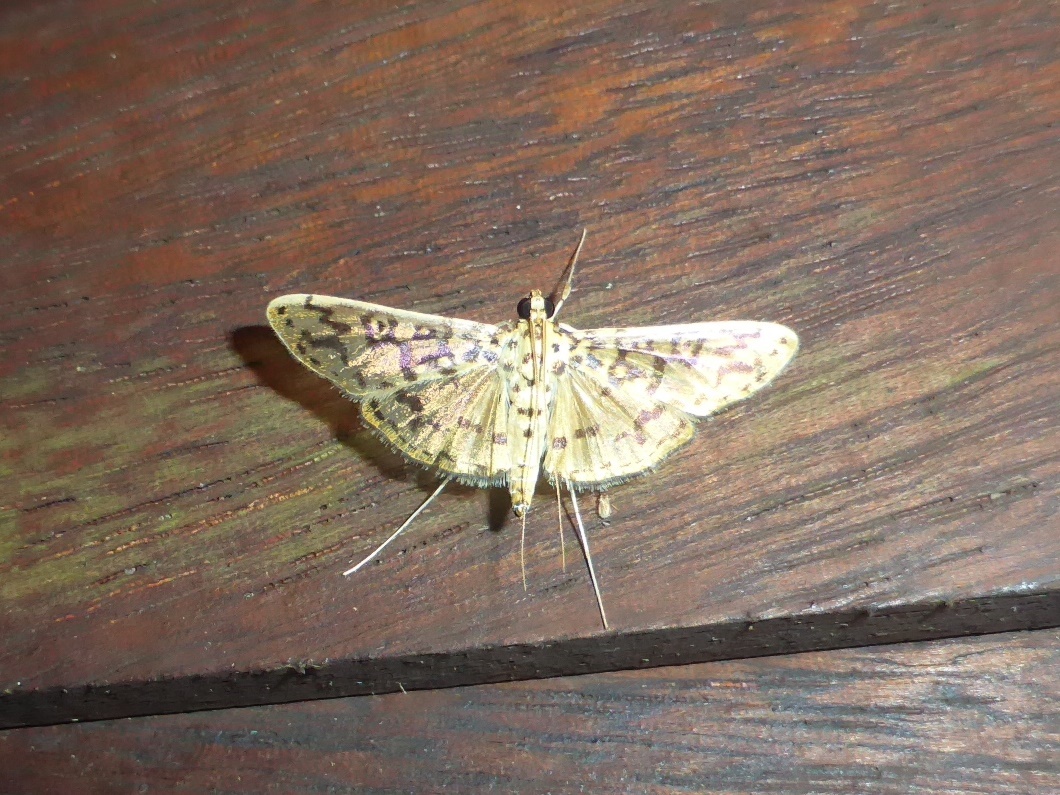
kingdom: Animalia
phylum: Arthropoda
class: Insecta
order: Lepidoptera
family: Crambidae
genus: Asturodes
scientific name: Asturodes junkoshimurae
